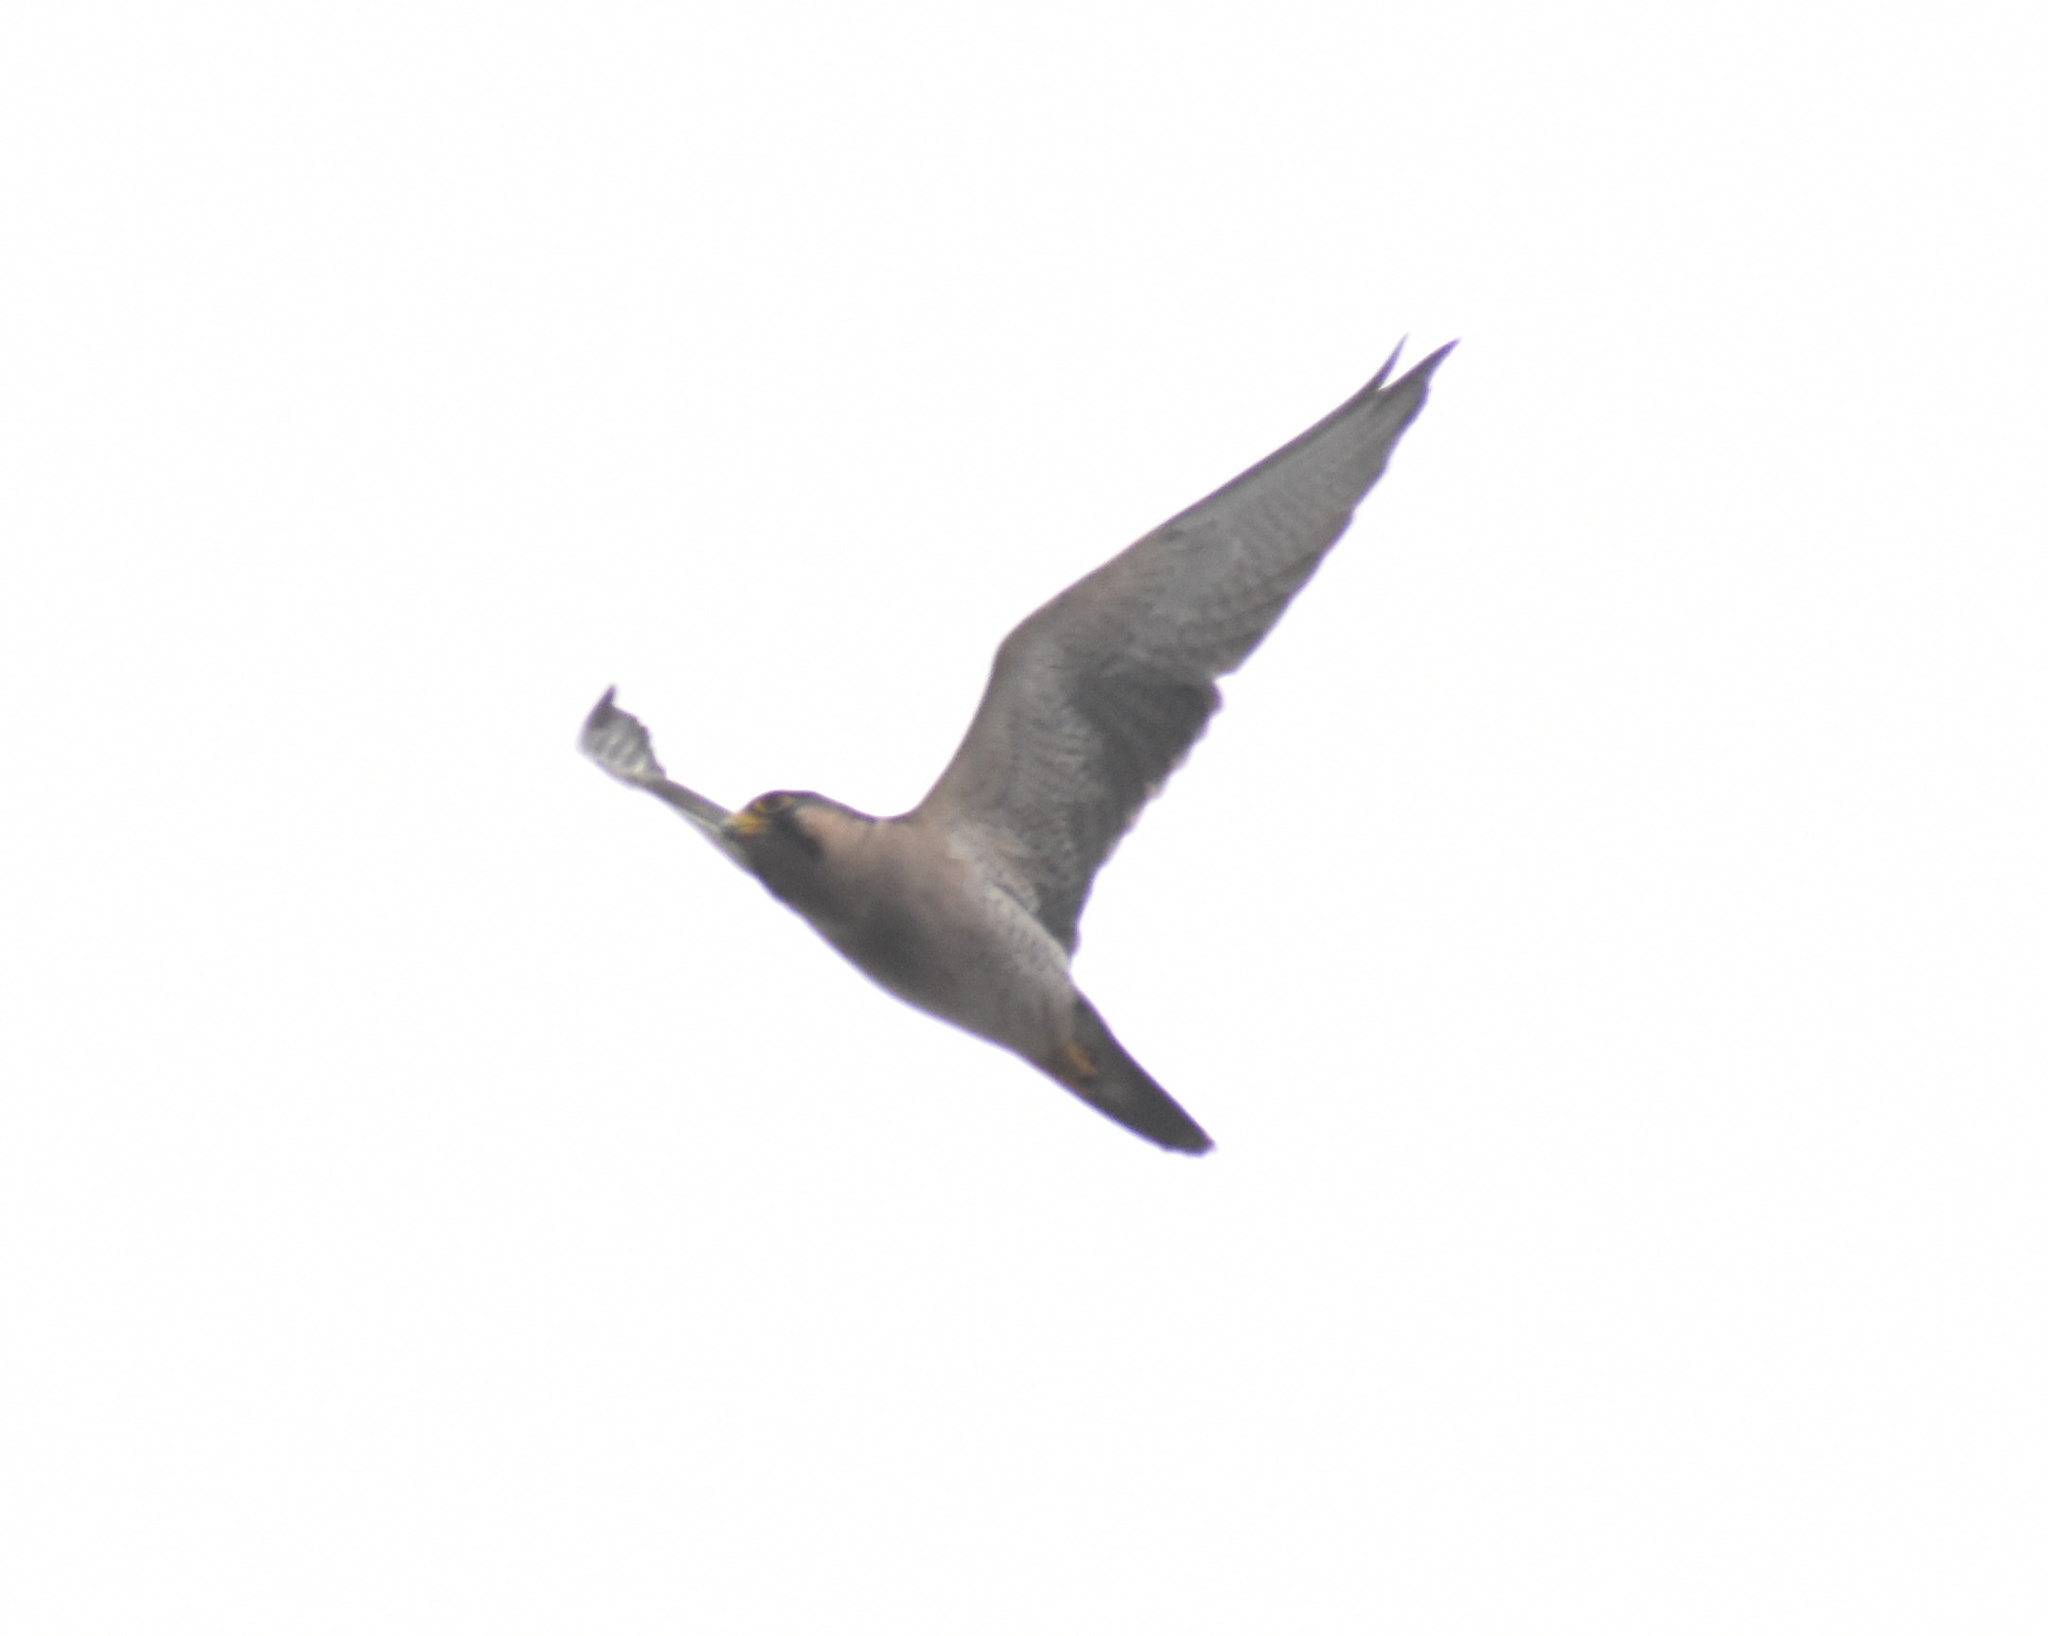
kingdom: Animalia
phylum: Chordata
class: Aves
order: Falconiformes
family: Falconidae
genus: Falco
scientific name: Falco biarmicus
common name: Lanner falcon
